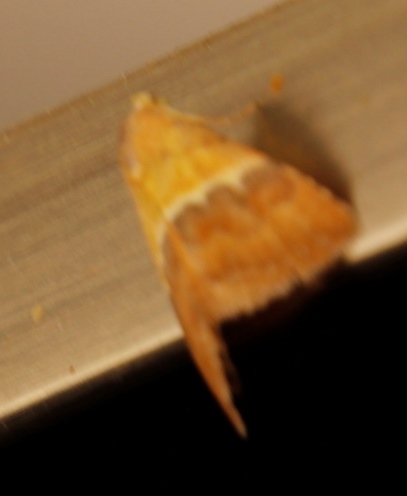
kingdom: Animalia
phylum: Arthropoda
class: Insecta
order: Lepidoptera
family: Noctuidae
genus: Eublemma
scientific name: Eublemma caffrorum
